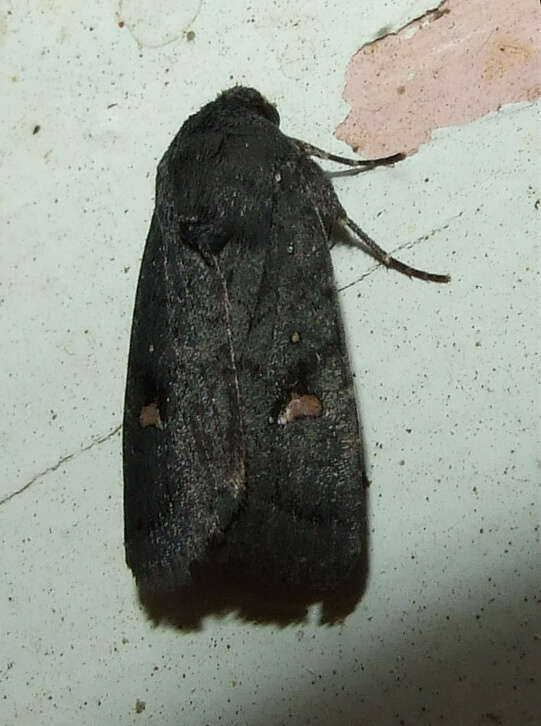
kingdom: Animalia
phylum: Arthropoda
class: Insecta
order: Lepidoptera
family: Noctuidae
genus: Proteuxoa
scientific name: Proteuxoa atra
